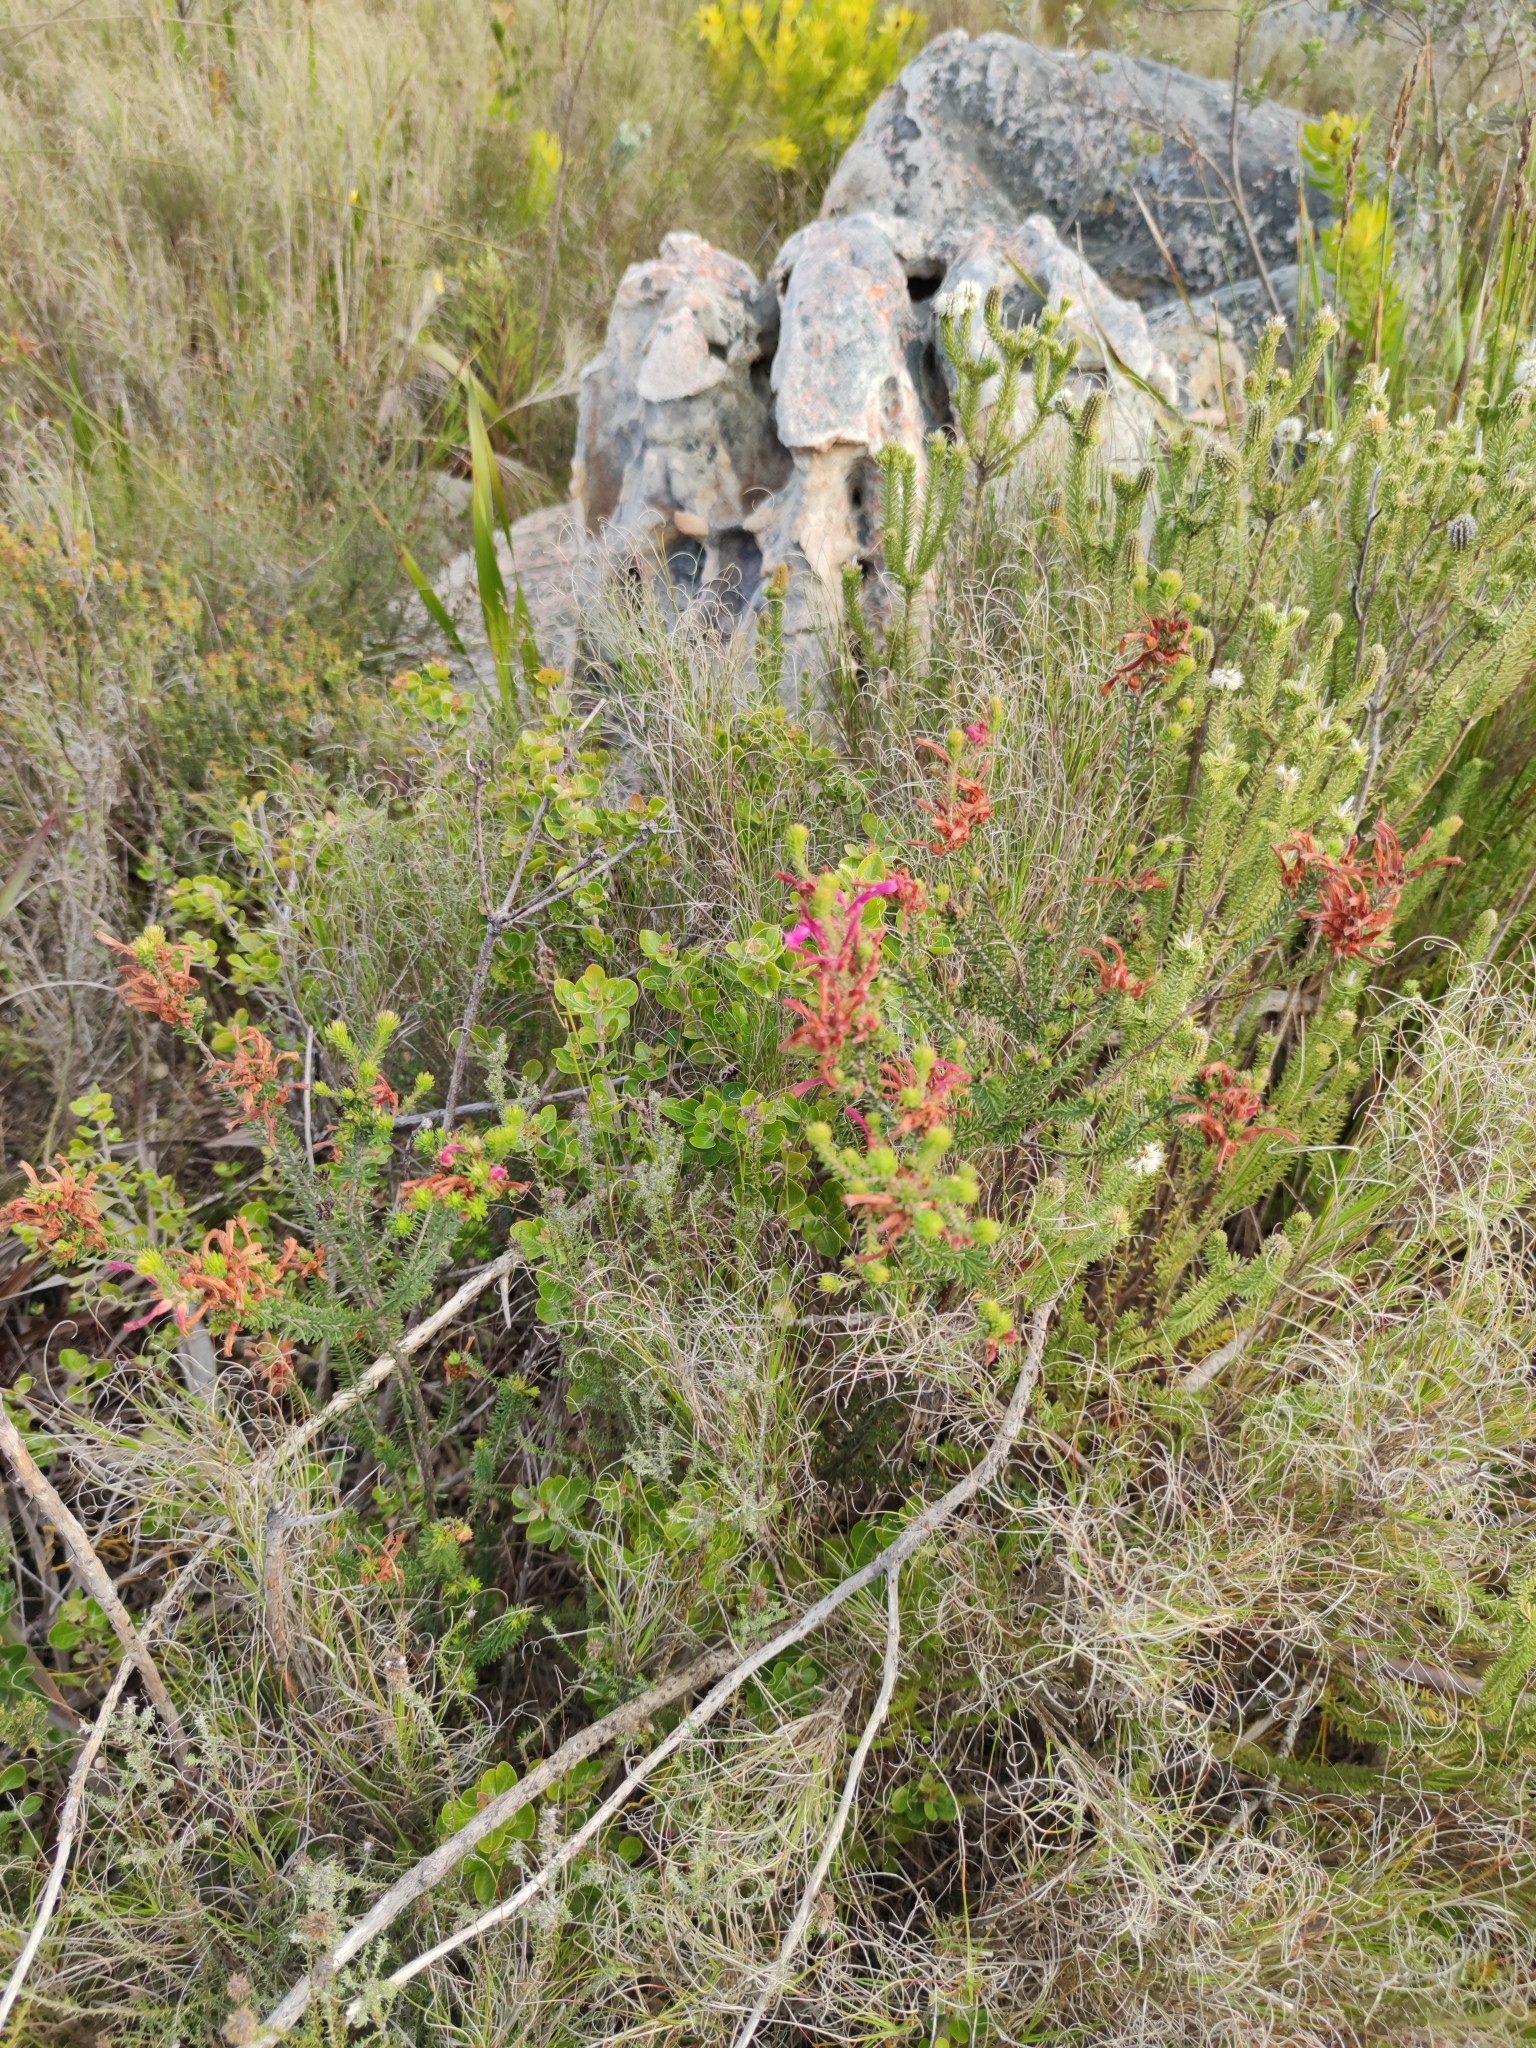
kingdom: Plantae
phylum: Tracheophyta
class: Magnoliopsida
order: Ericales
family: Ericaceae
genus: Erica
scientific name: Erica abietina
